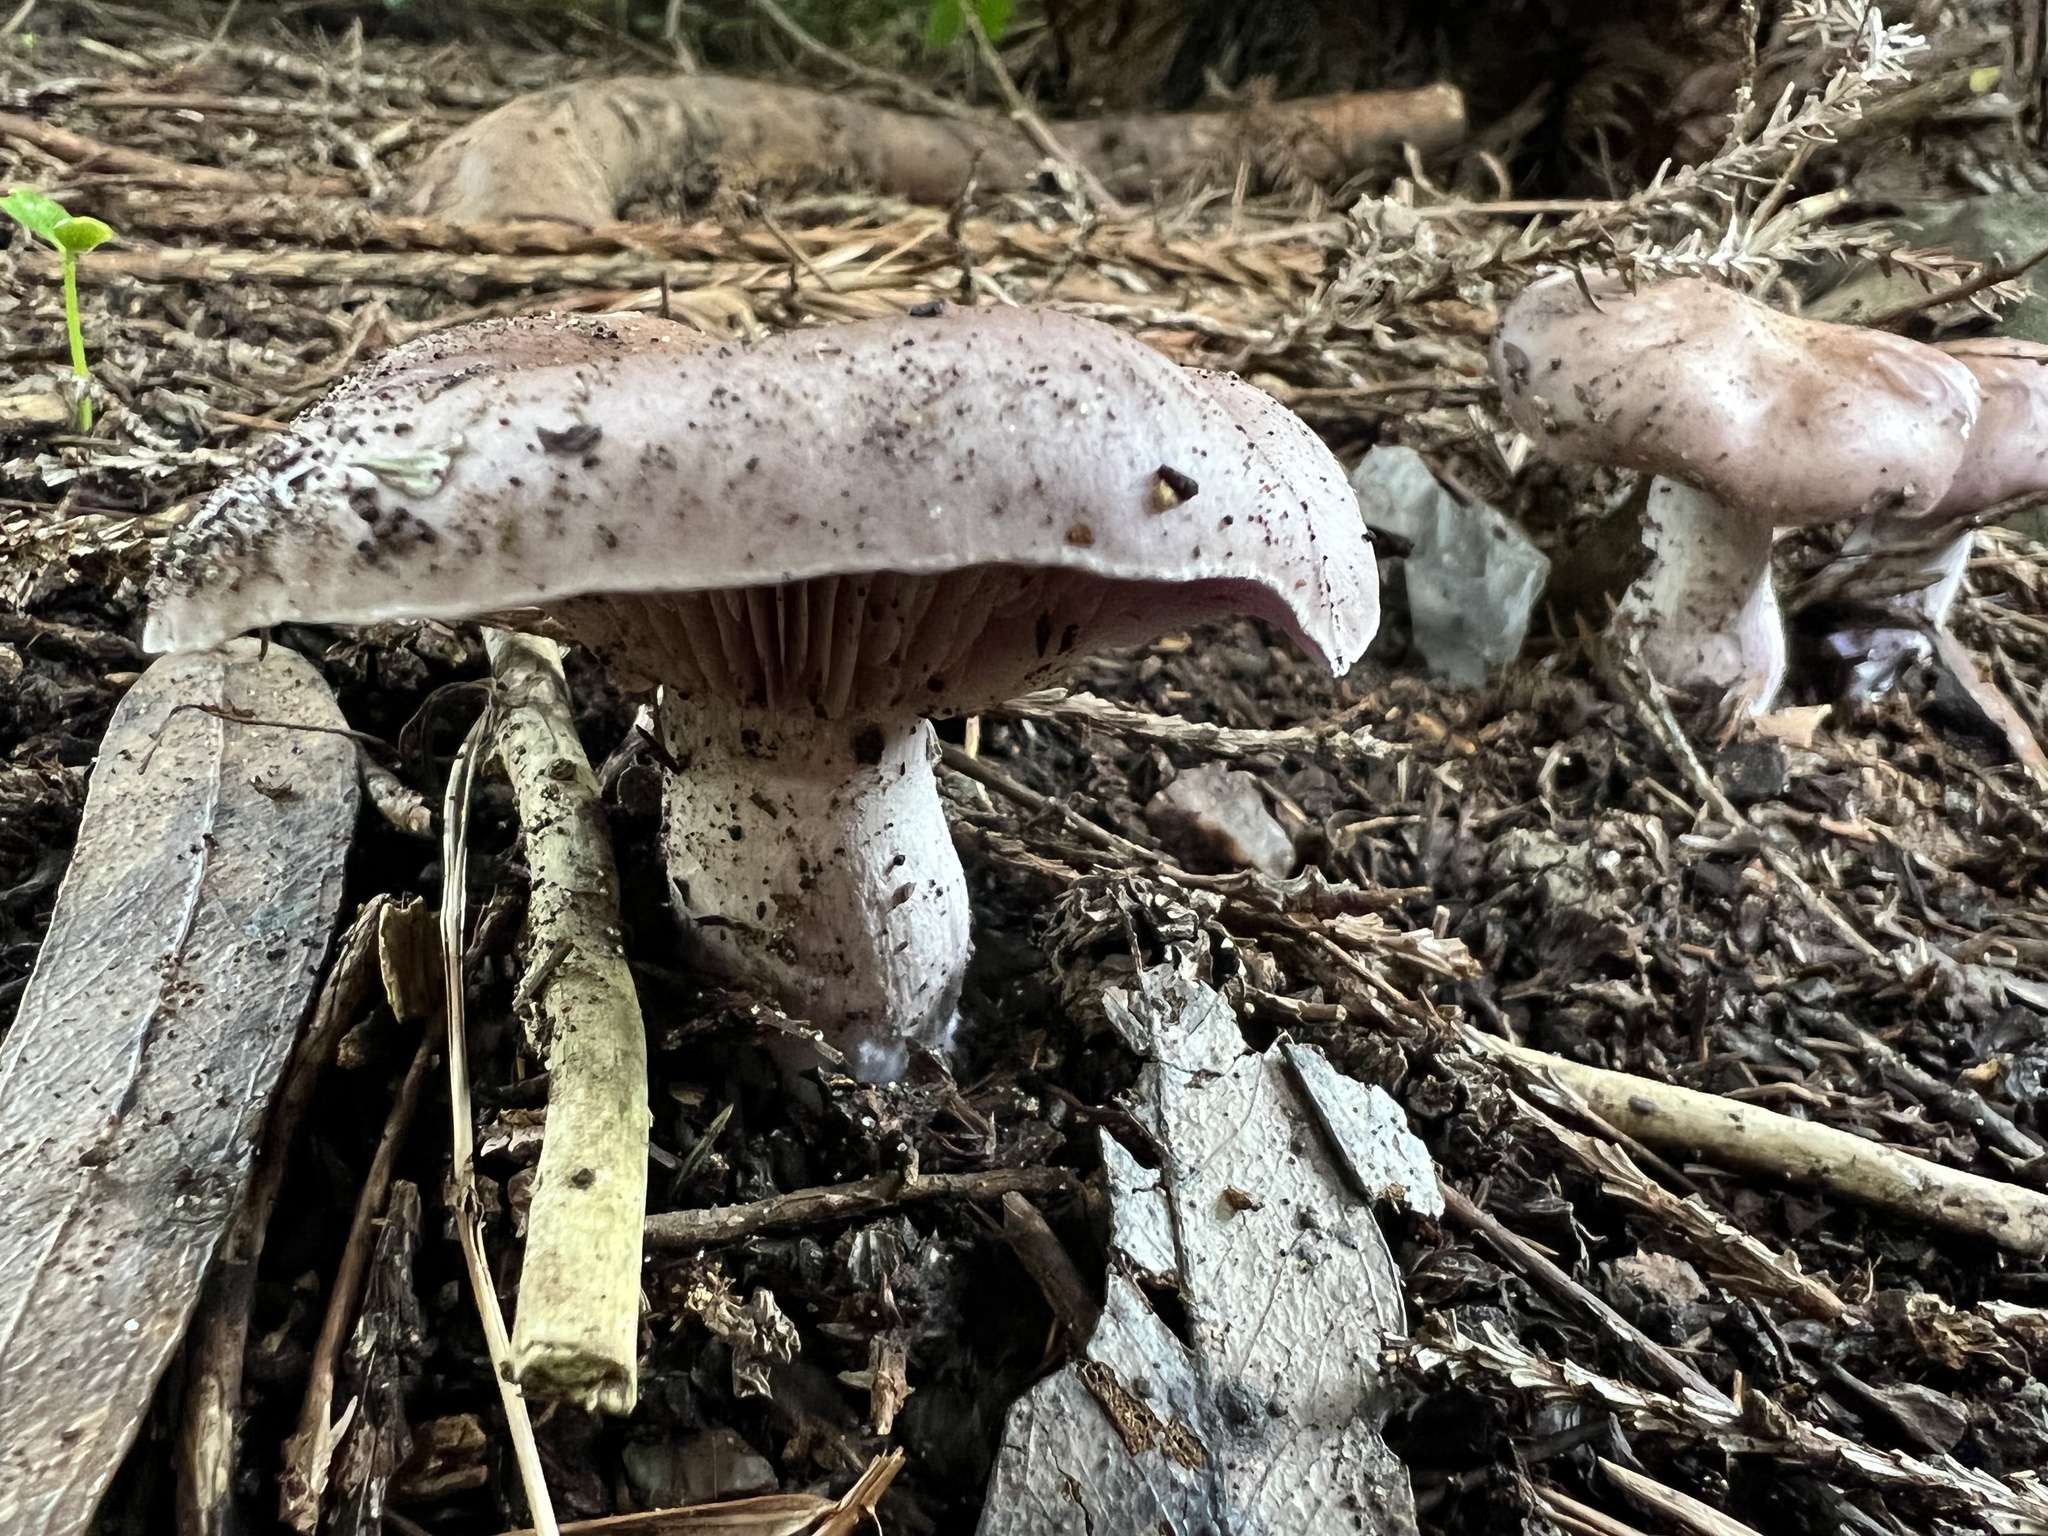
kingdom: Fungi
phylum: Basidiomycota
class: Agaricomycetes
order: Agaricales
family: Tricholomataceae
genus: Collybia
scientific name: Collybia
